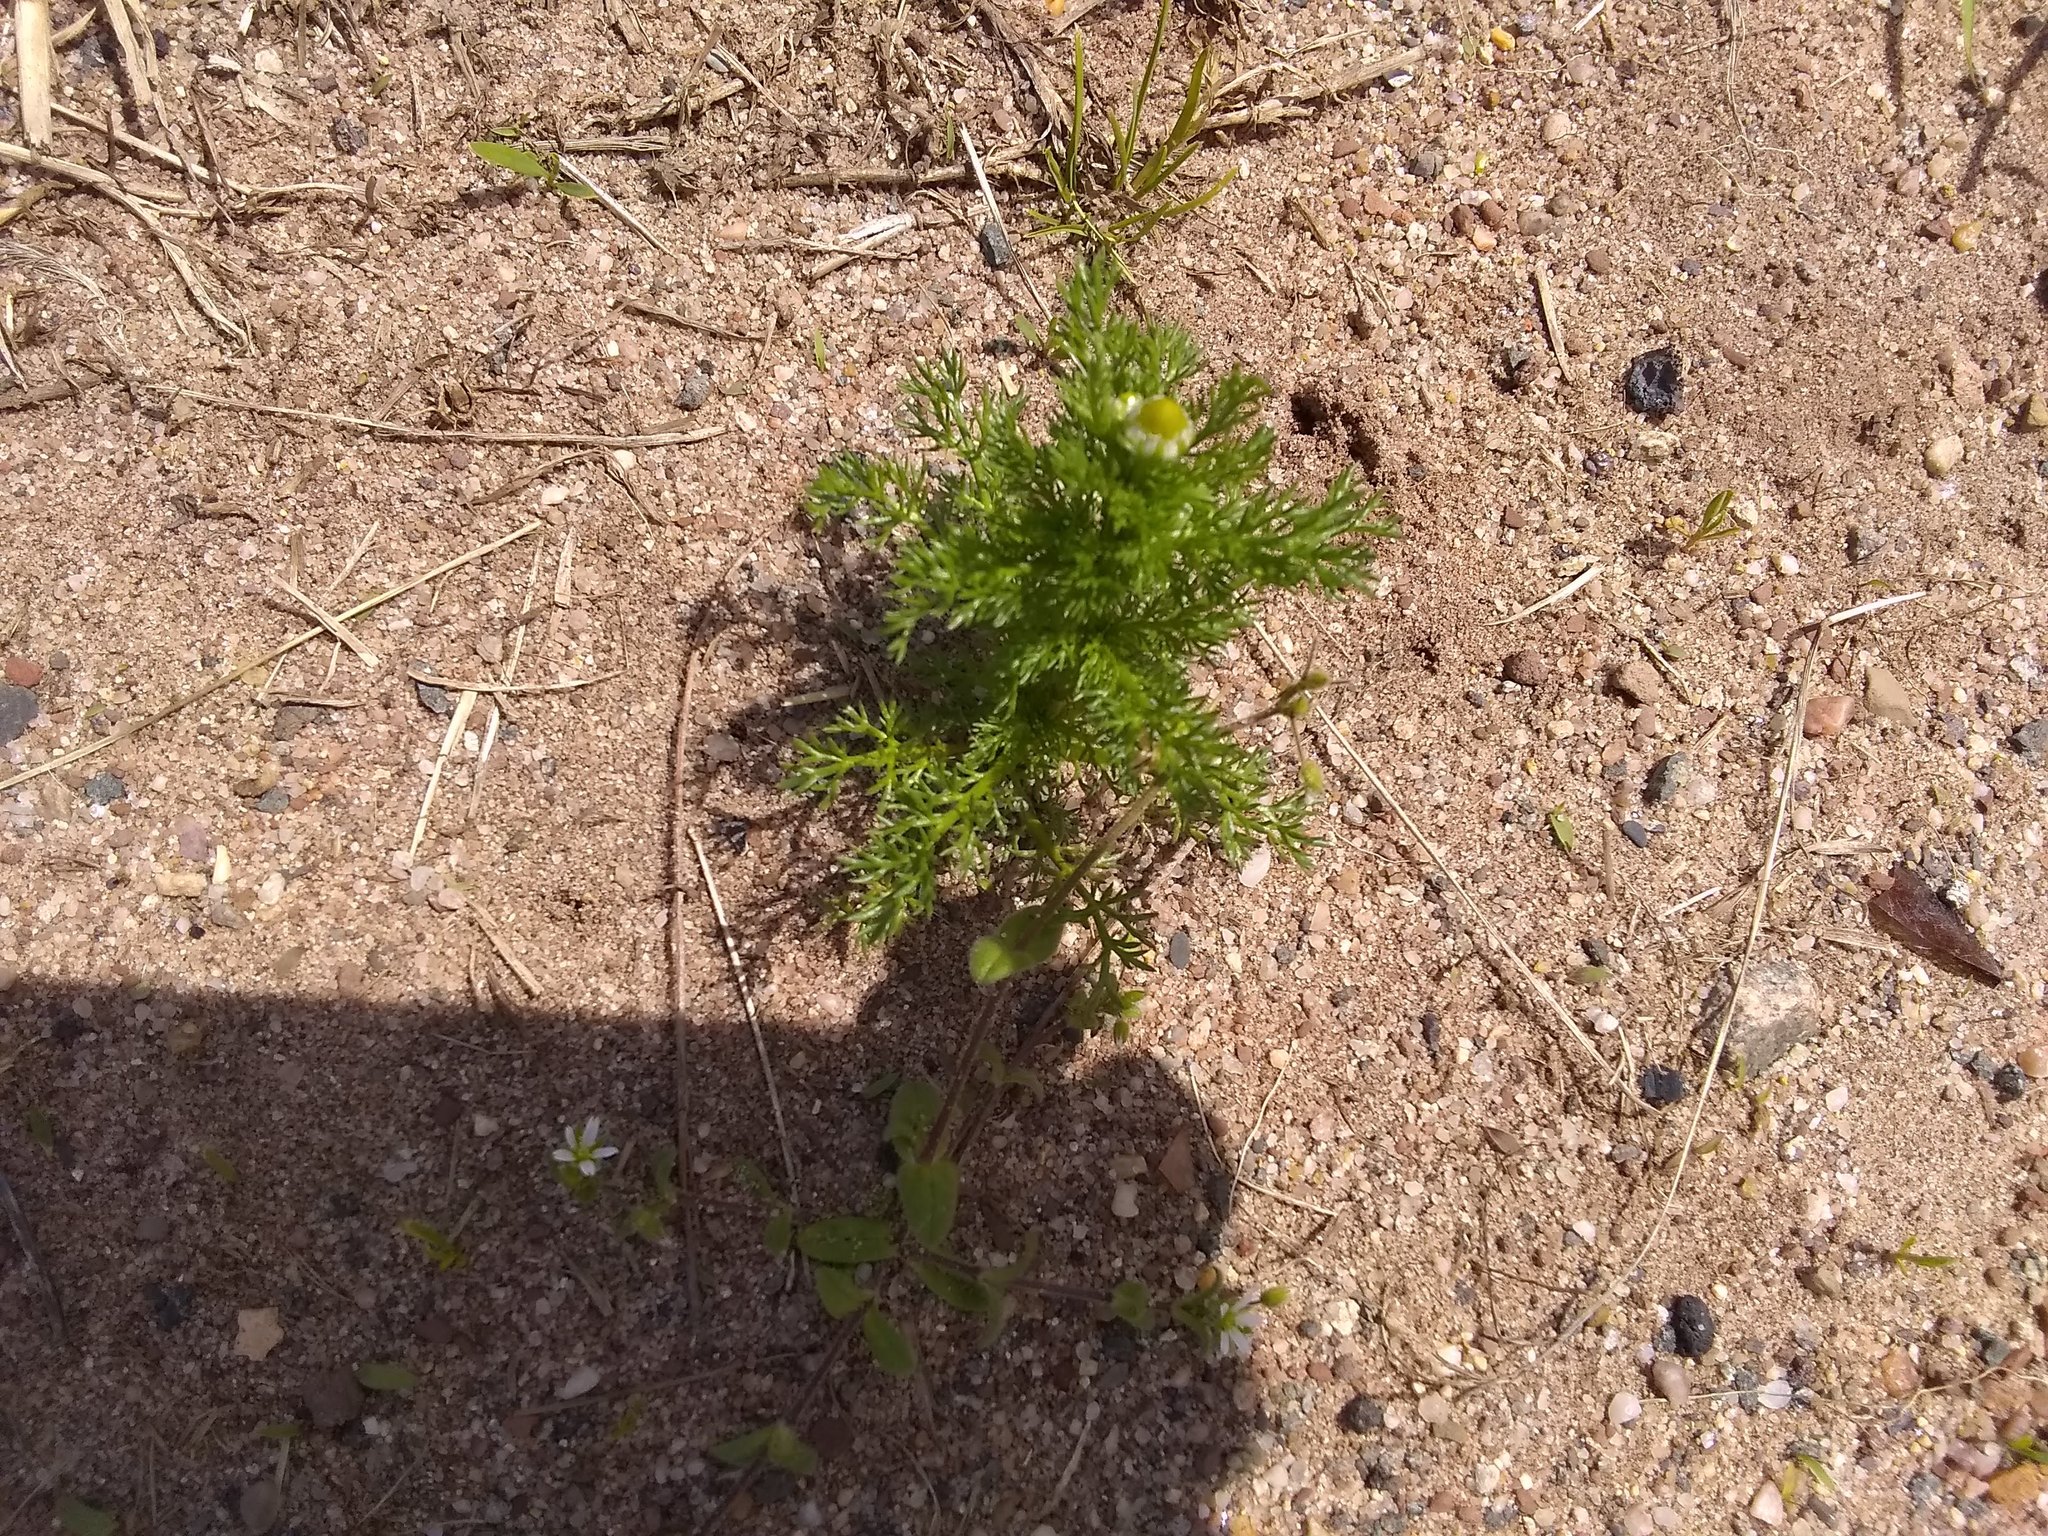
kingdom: Plantae
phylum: Tracheophyta
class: Magnoliopsida
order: Asterales
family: Asteraceae
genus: Matricaria
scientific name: Matricaria discoidea
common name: Disc mayweed
